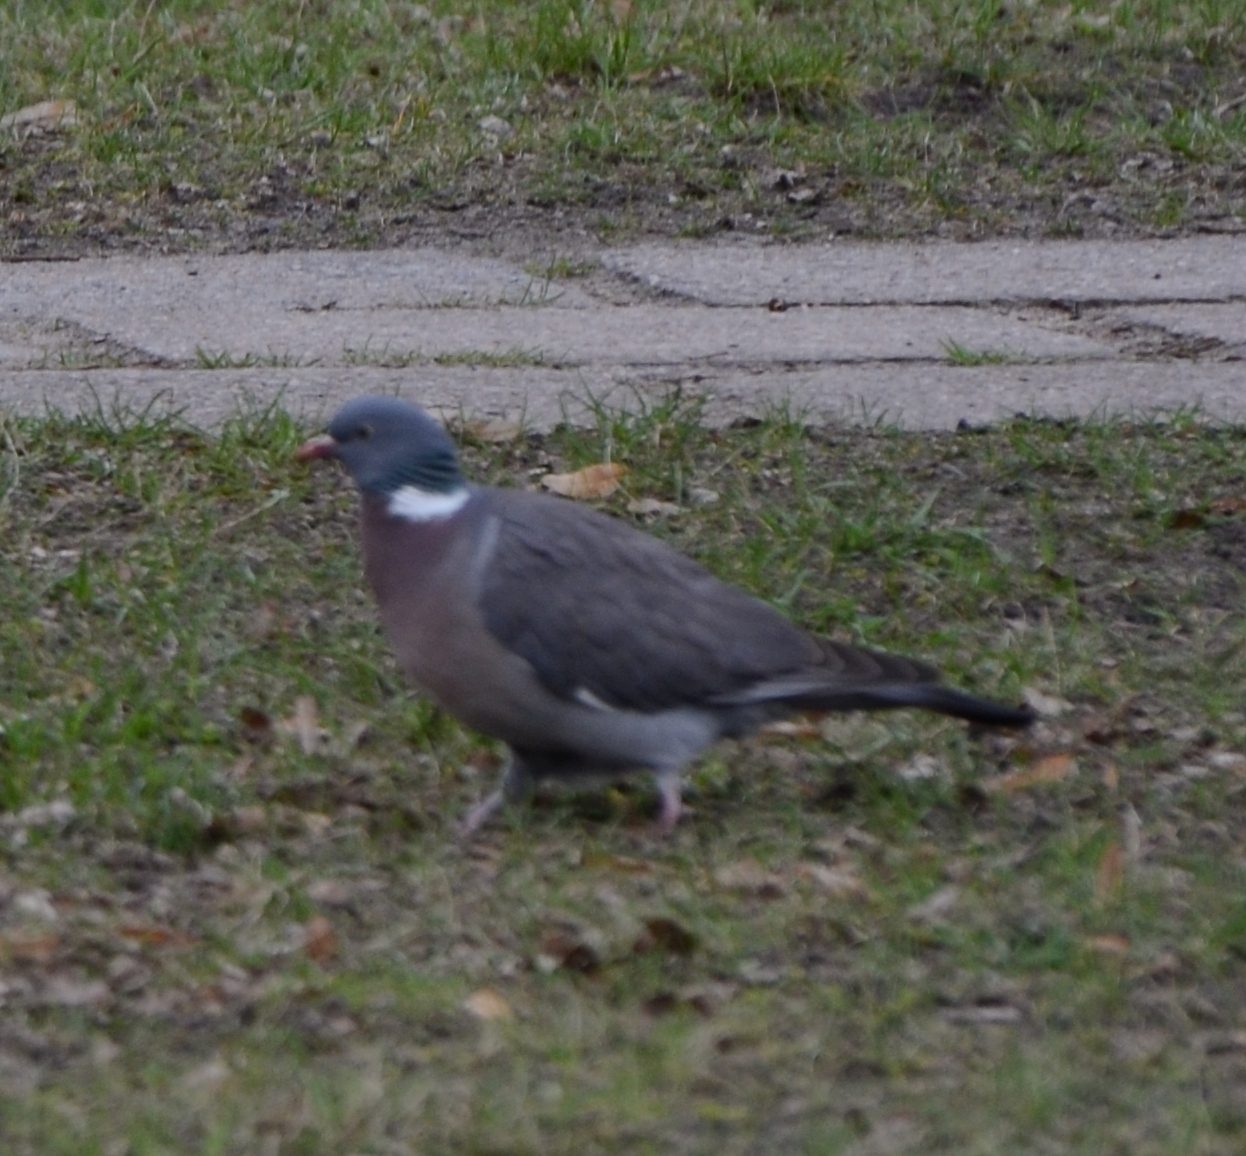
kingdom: Animalia
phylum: Chordata
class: Aves
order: Columbiformes
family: Columbidae
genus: Columba
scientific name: Columba palumbus
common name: Common wood pigeon
